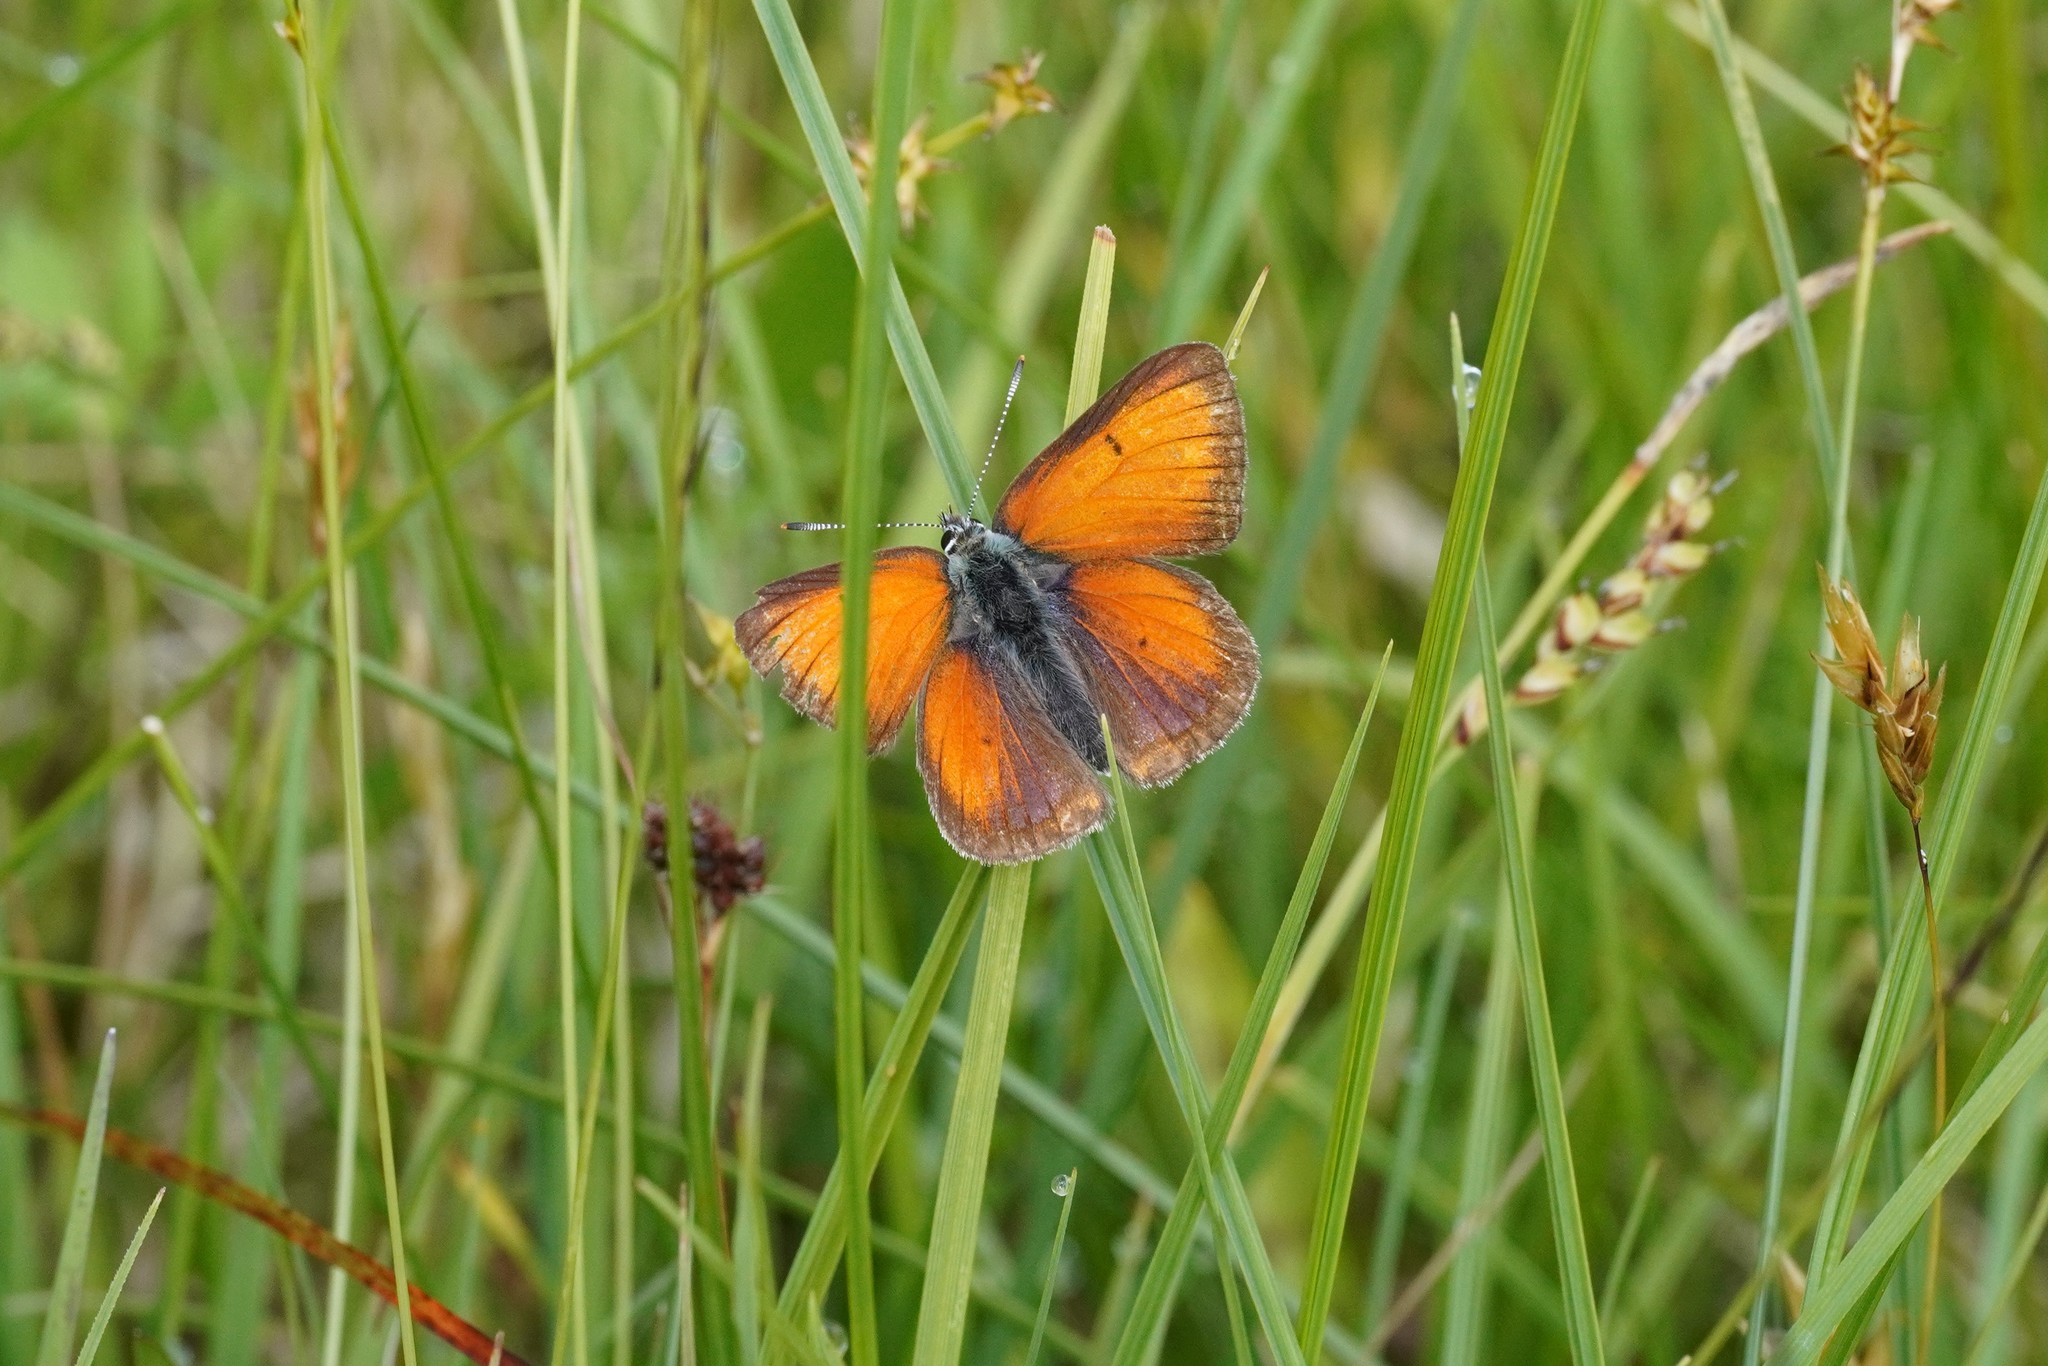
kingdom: Animalia
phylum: Arthropoda
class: Insecta
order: Lepidoptera
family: Lycaenidae
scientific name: Lycaenidae
